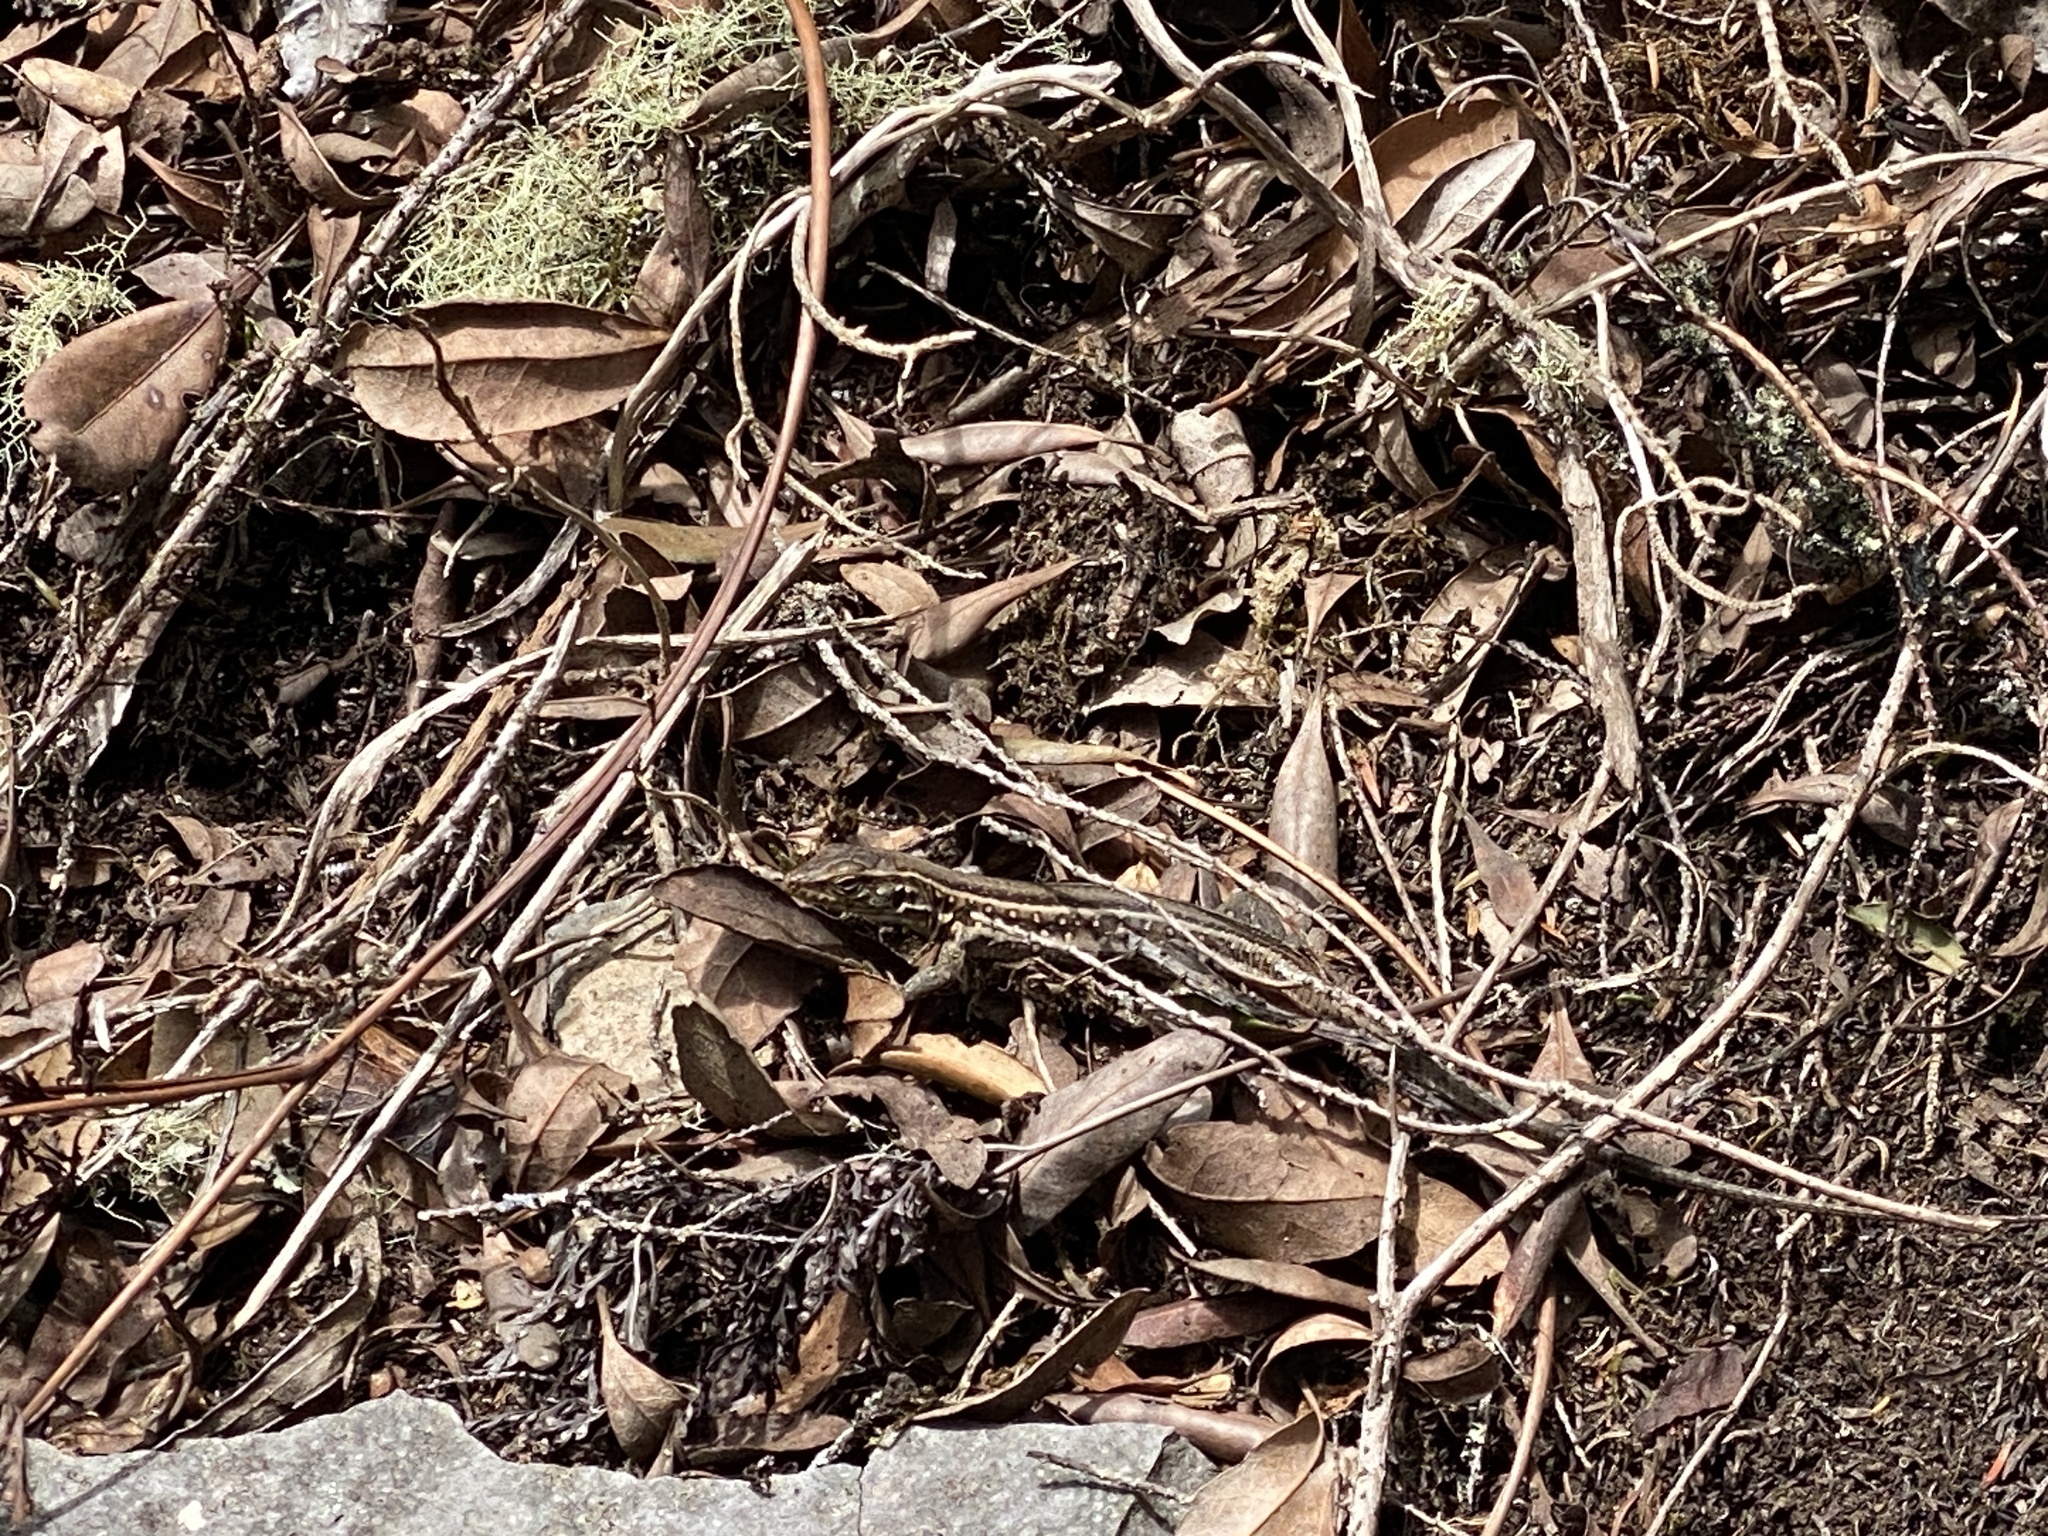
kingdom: Animalia
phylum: Chordata
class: Squamata
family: Lacertidae
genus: Gallotia
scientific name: Gallotia galloti
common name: Gallot's lizard
